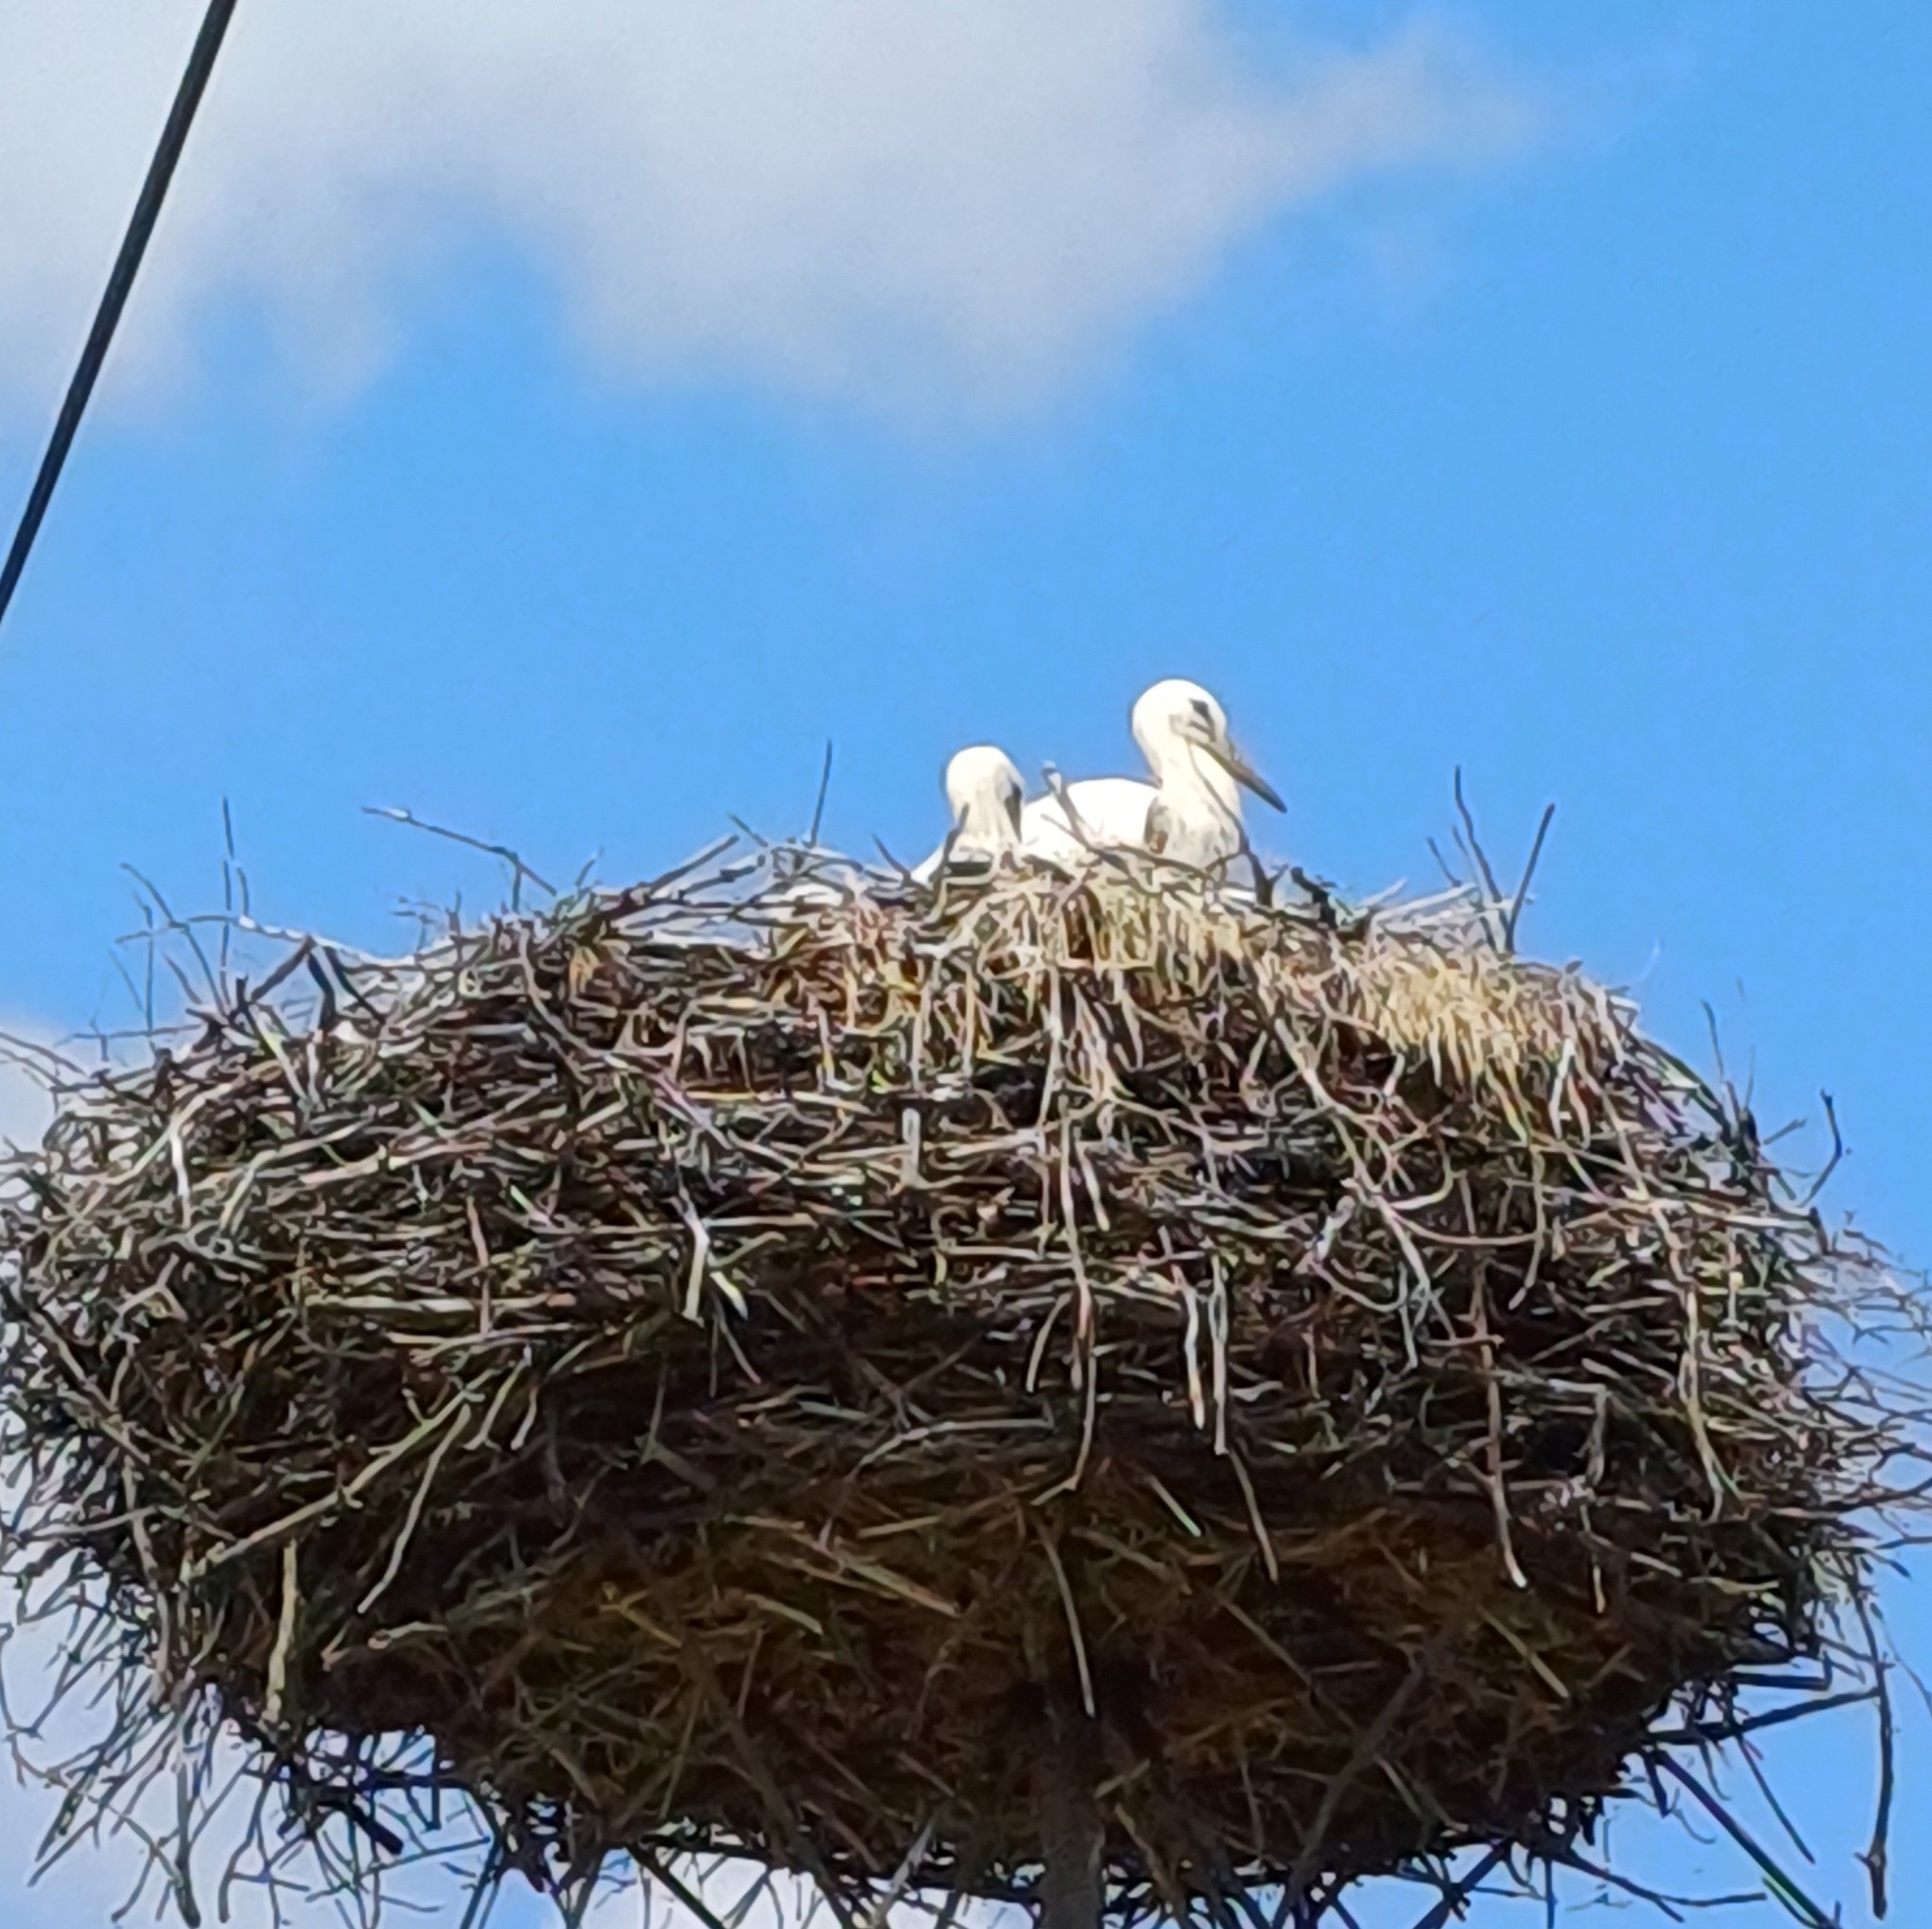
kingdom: Animalia
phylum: Chordata
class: Aves
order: Ciconiiformes
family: Ciconiidae
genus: Ciconia
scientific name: Ciconia ciconia
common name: White stork
